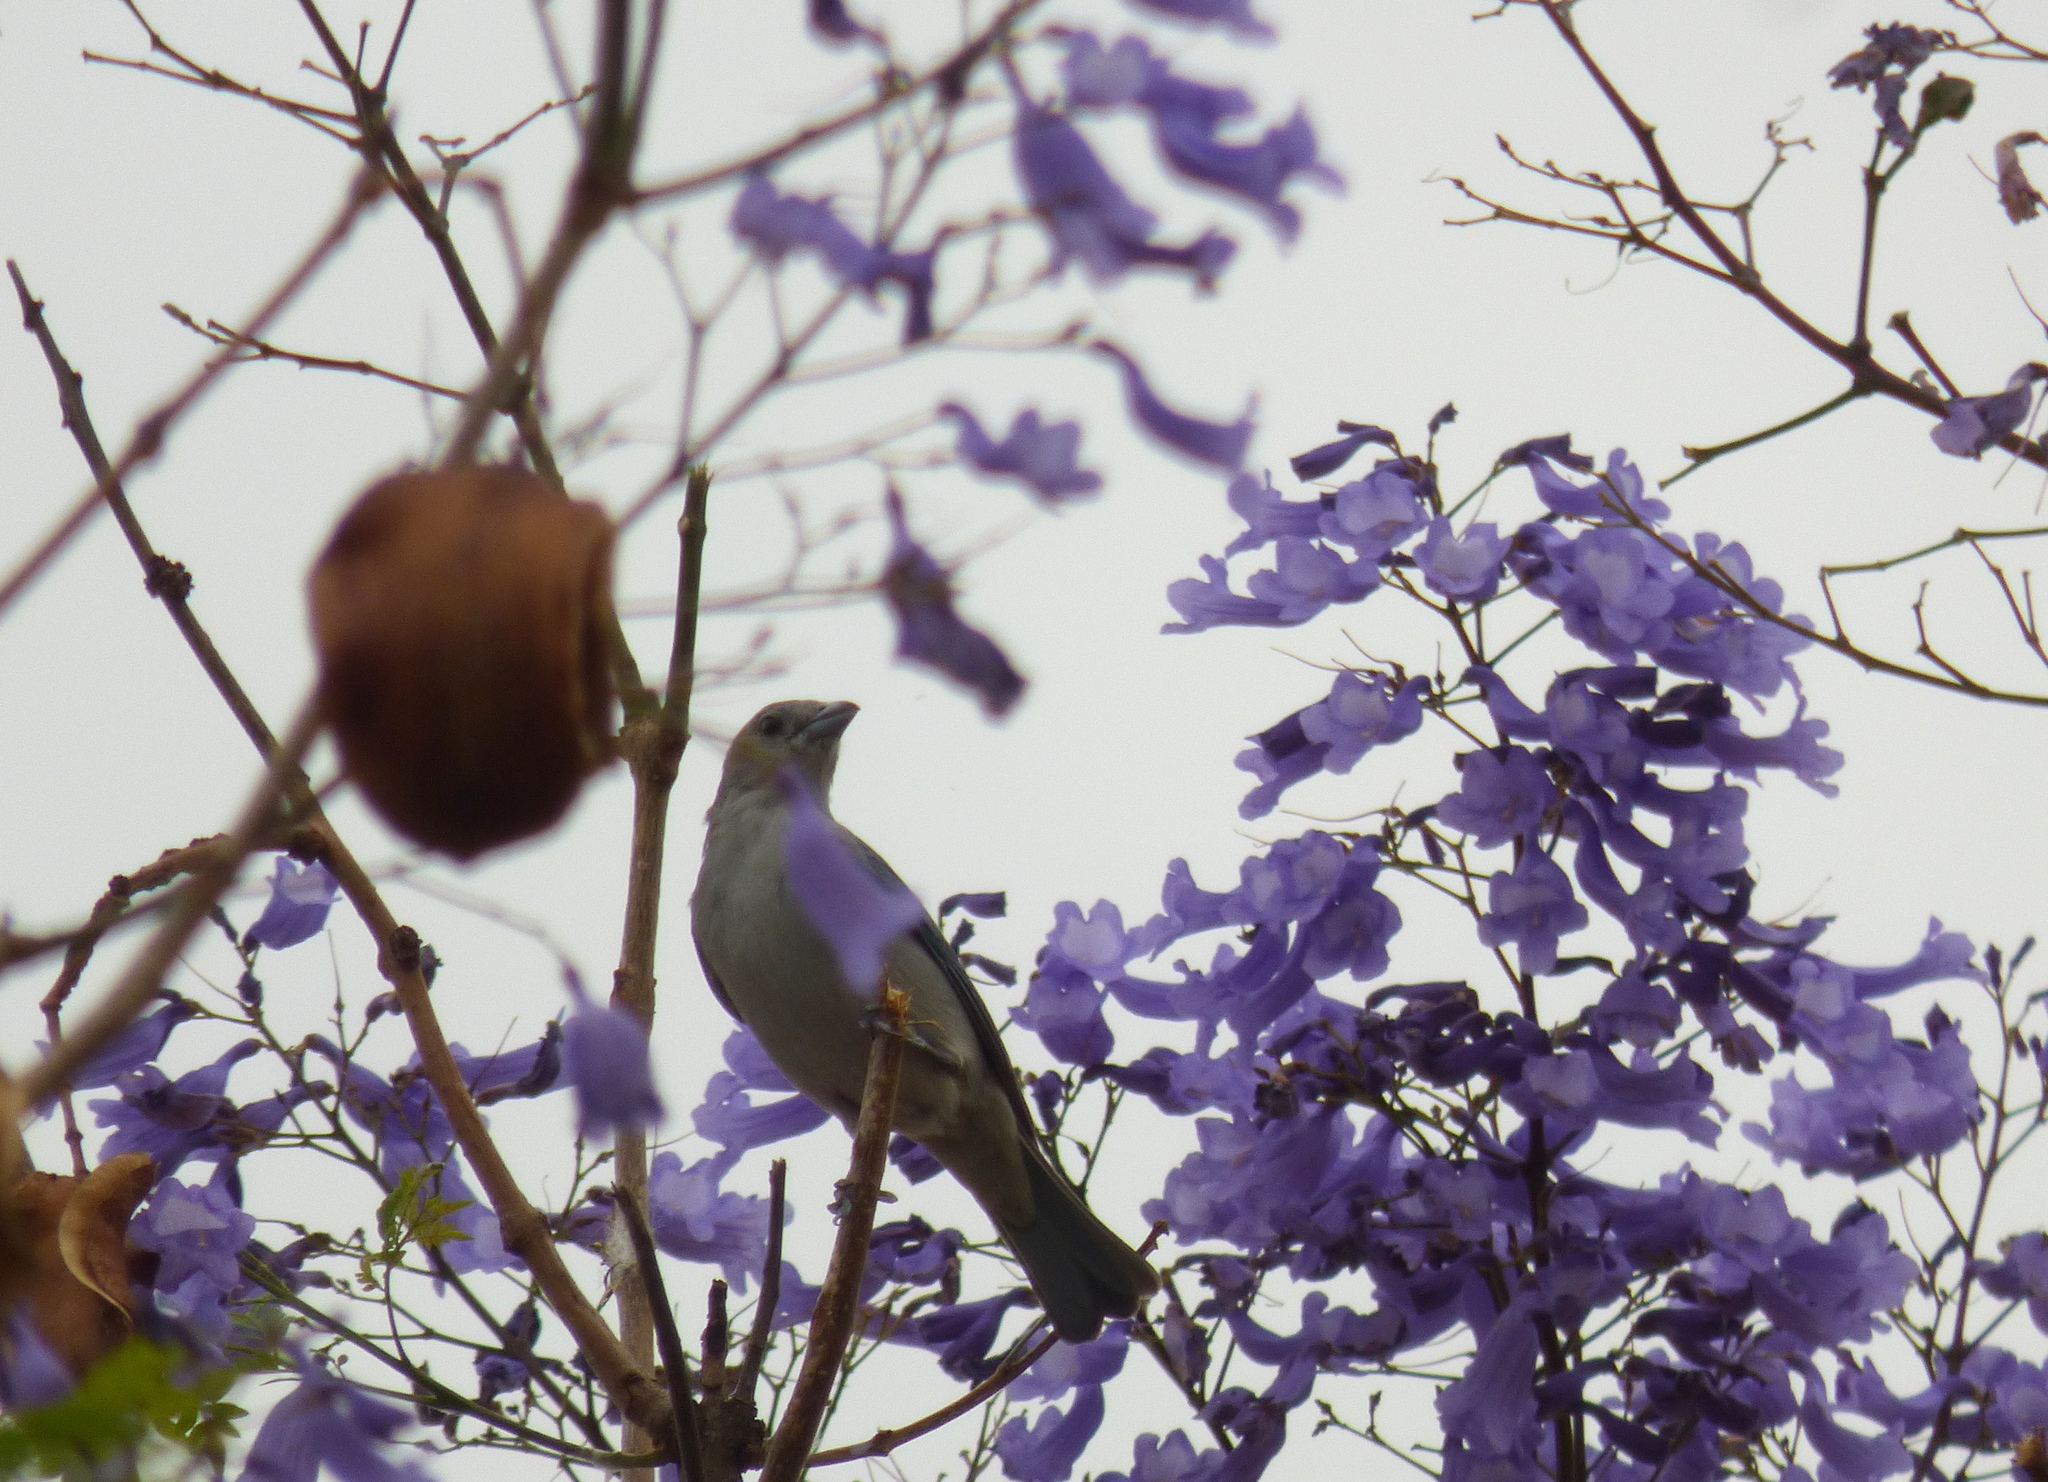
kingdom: Animalia
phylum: Chordata
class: Aves
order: Passeriformes
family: Thraupidae
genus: Thraupis
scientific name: Thraupis sayaca
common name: Sayaca tanager
